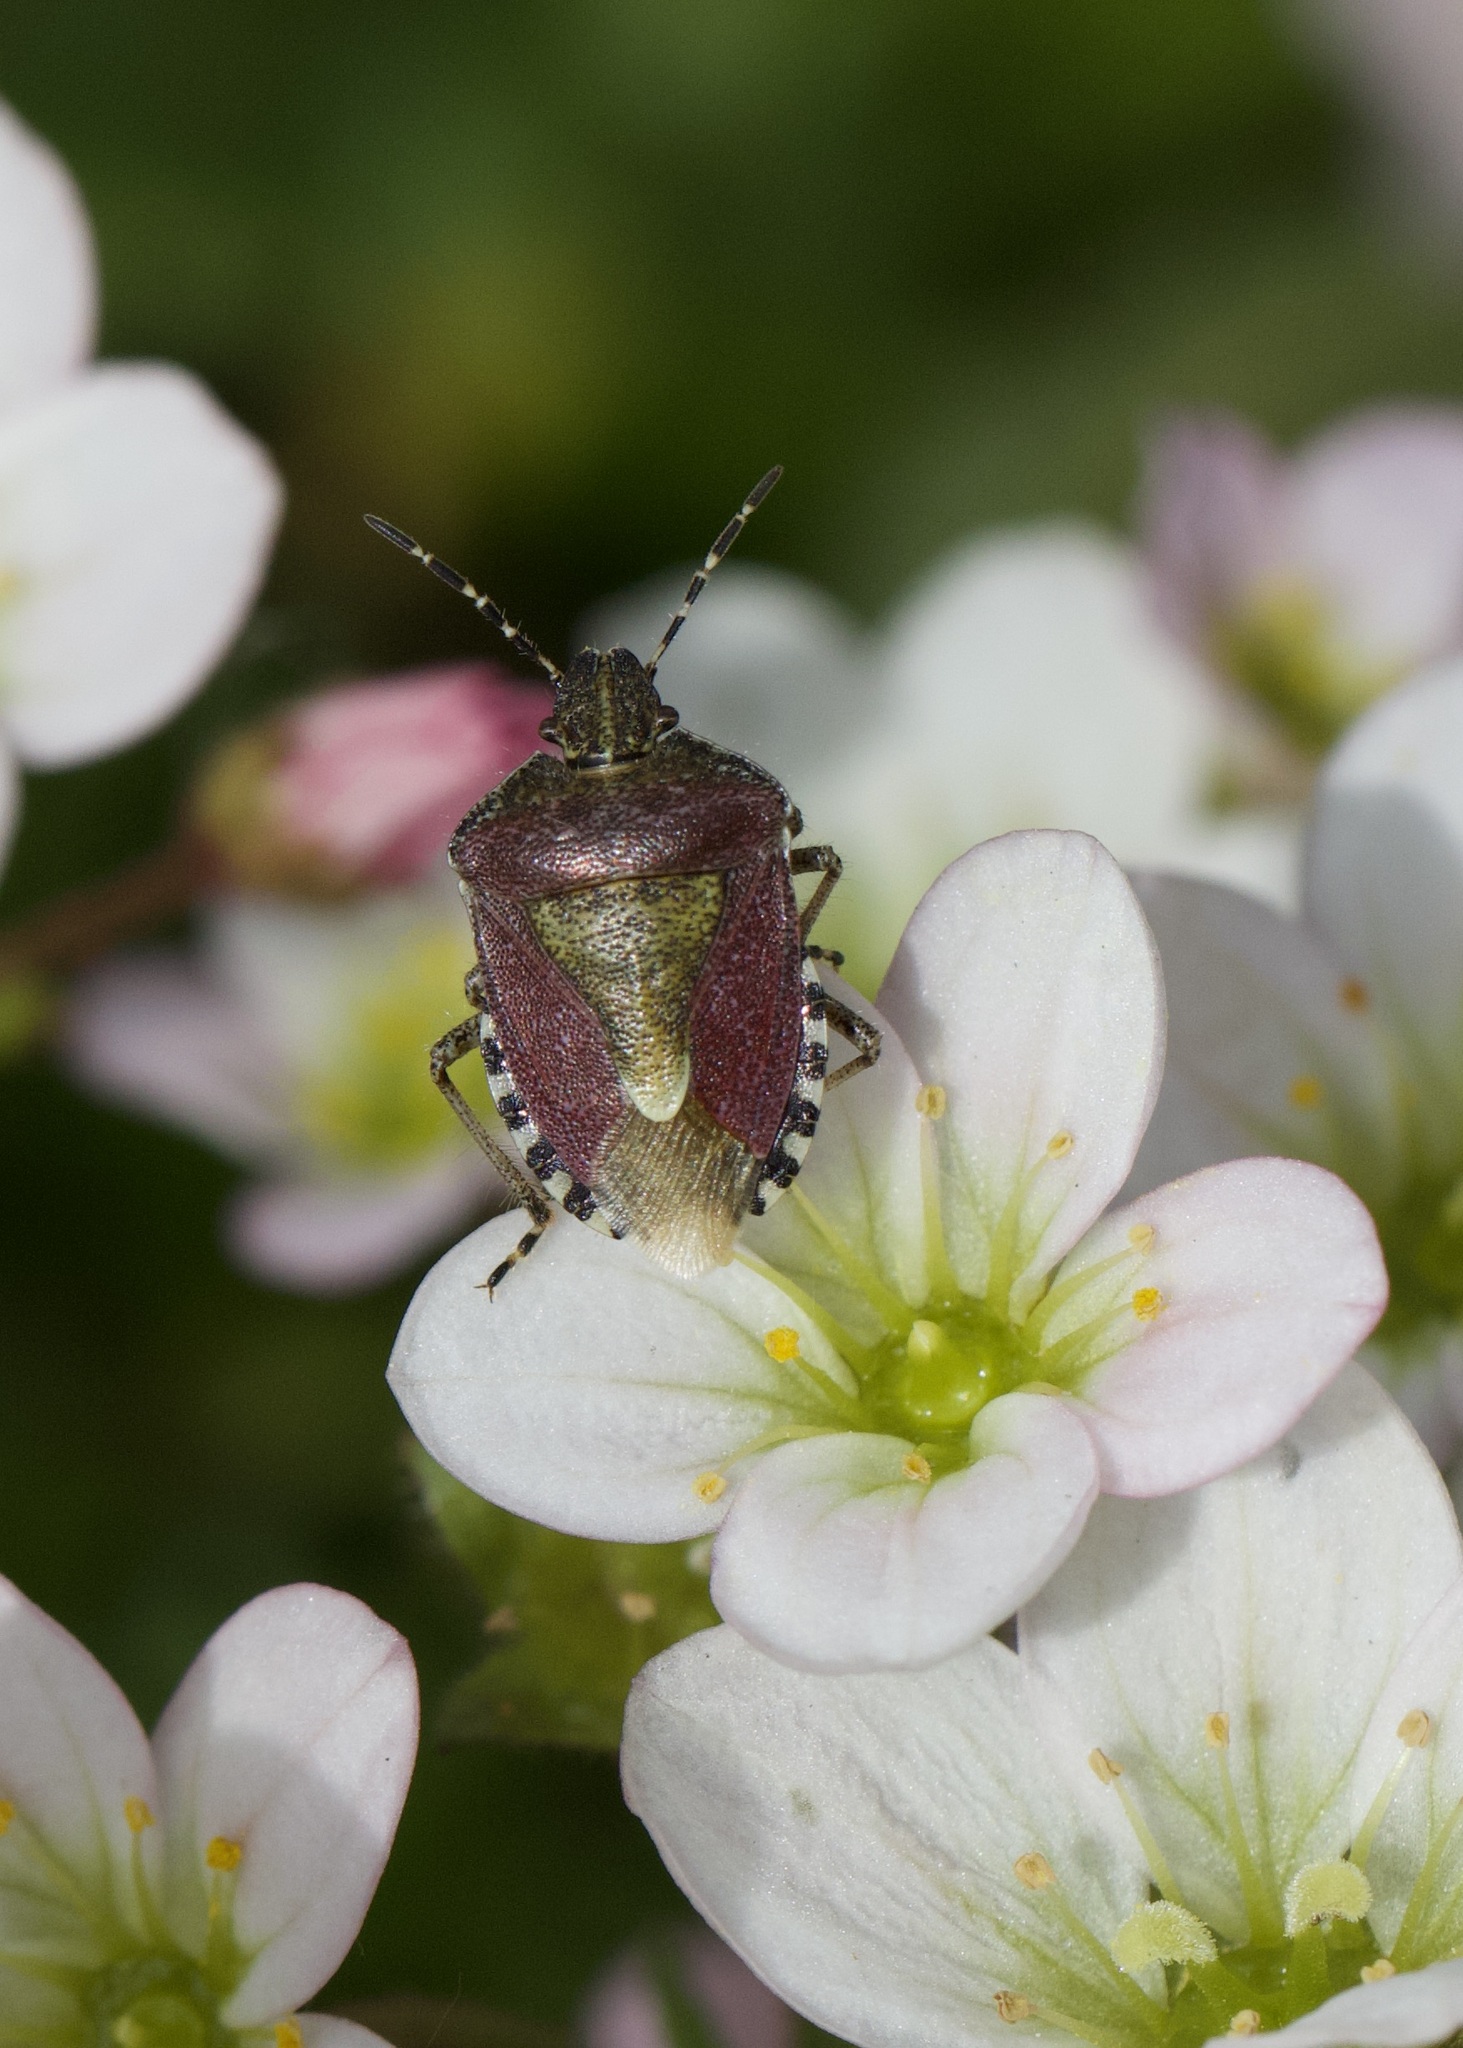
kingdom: Animalia
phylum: Arthropoda
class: Insecta
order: Hemiptera
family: Pentatomidae
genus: Dolycoris
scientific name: Dolycoris baccarum
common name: Sloe bug
